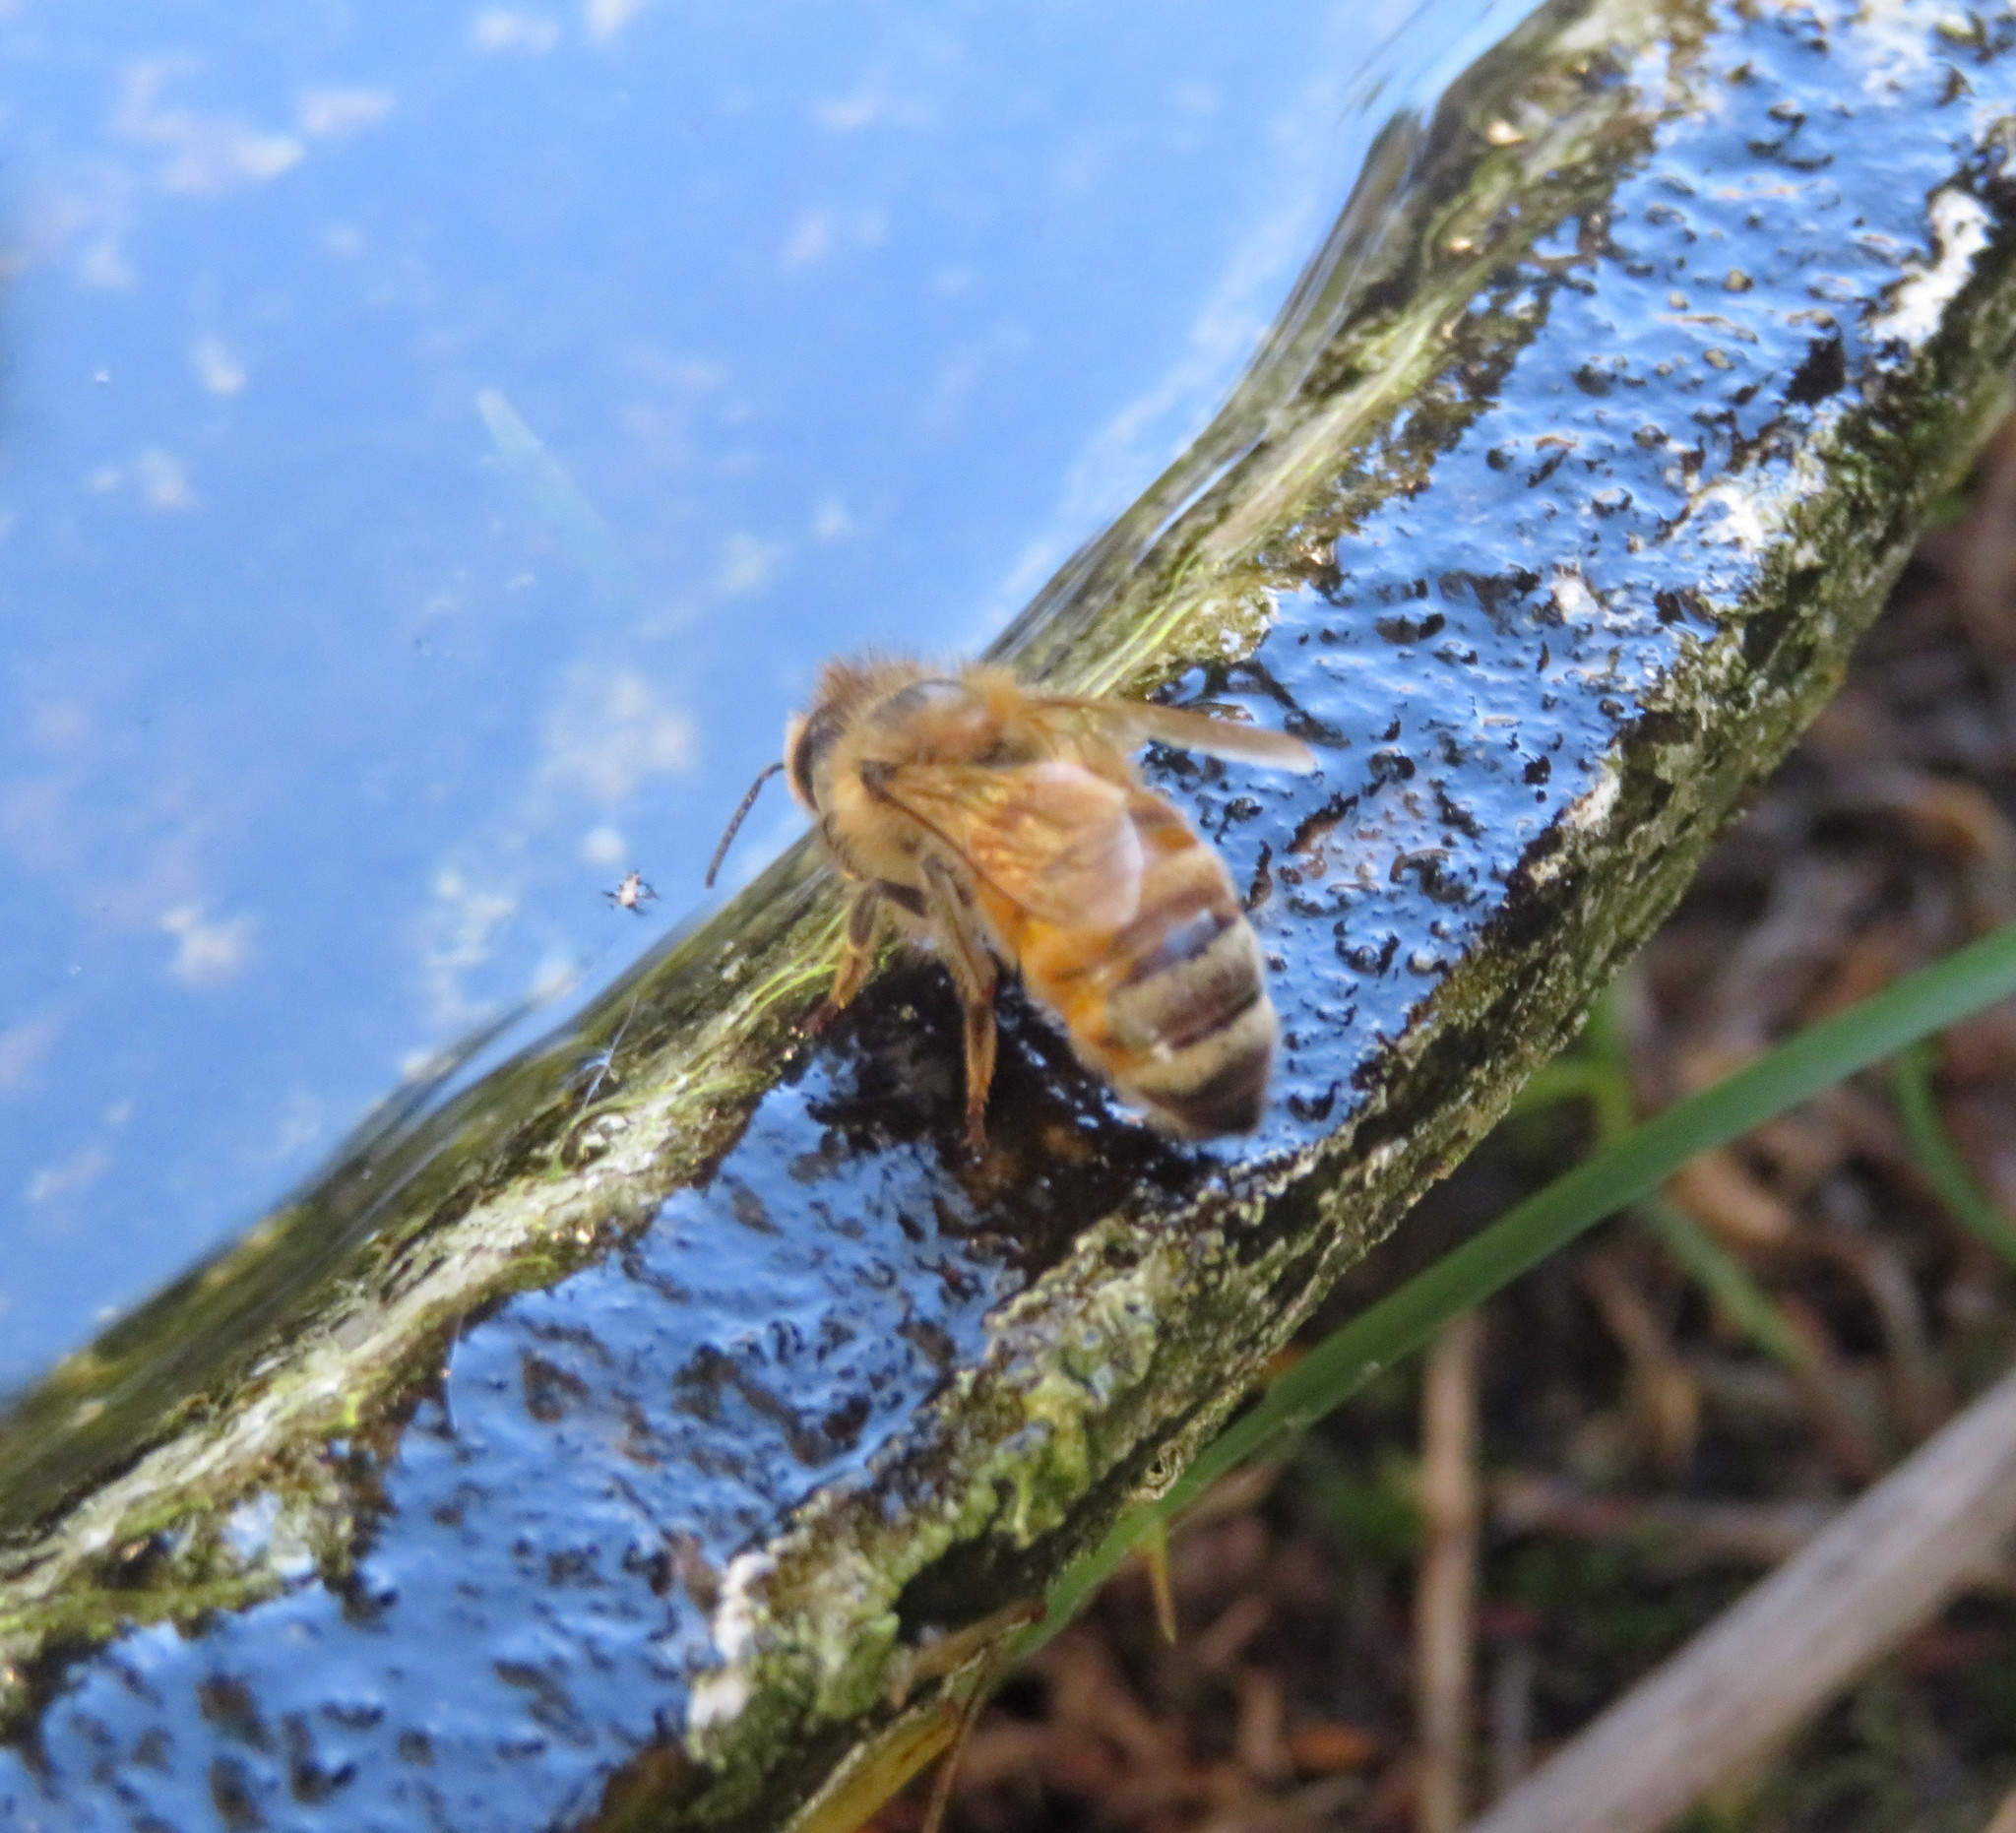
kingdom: Animalia
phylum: Arthropoda
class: Insecta
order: Hymenoptera
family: Apidae
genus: Apis
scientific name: Apis mellifera
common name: Honey bee
